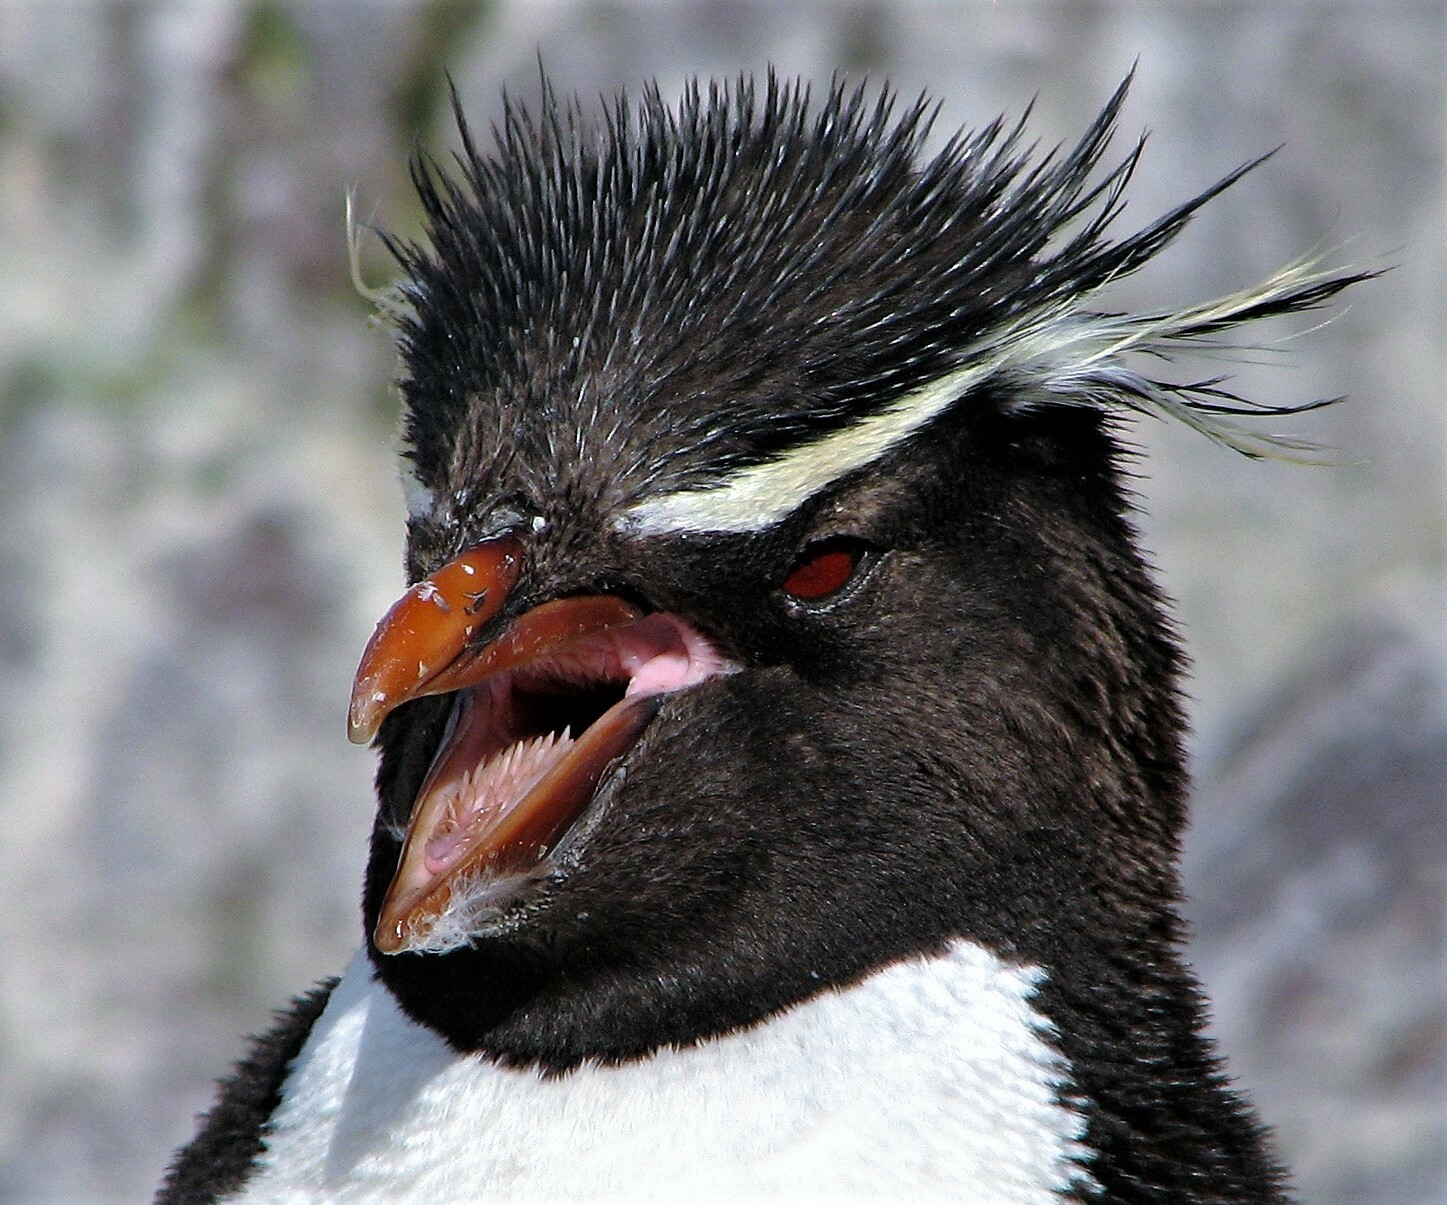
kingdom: Animalia
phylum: Chordata
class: Aves
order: Sphenisciformes
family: Spheniscidae
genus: Eudyptes
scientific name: Eudyptes chrysocome
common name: Southern rockhopper penguin
